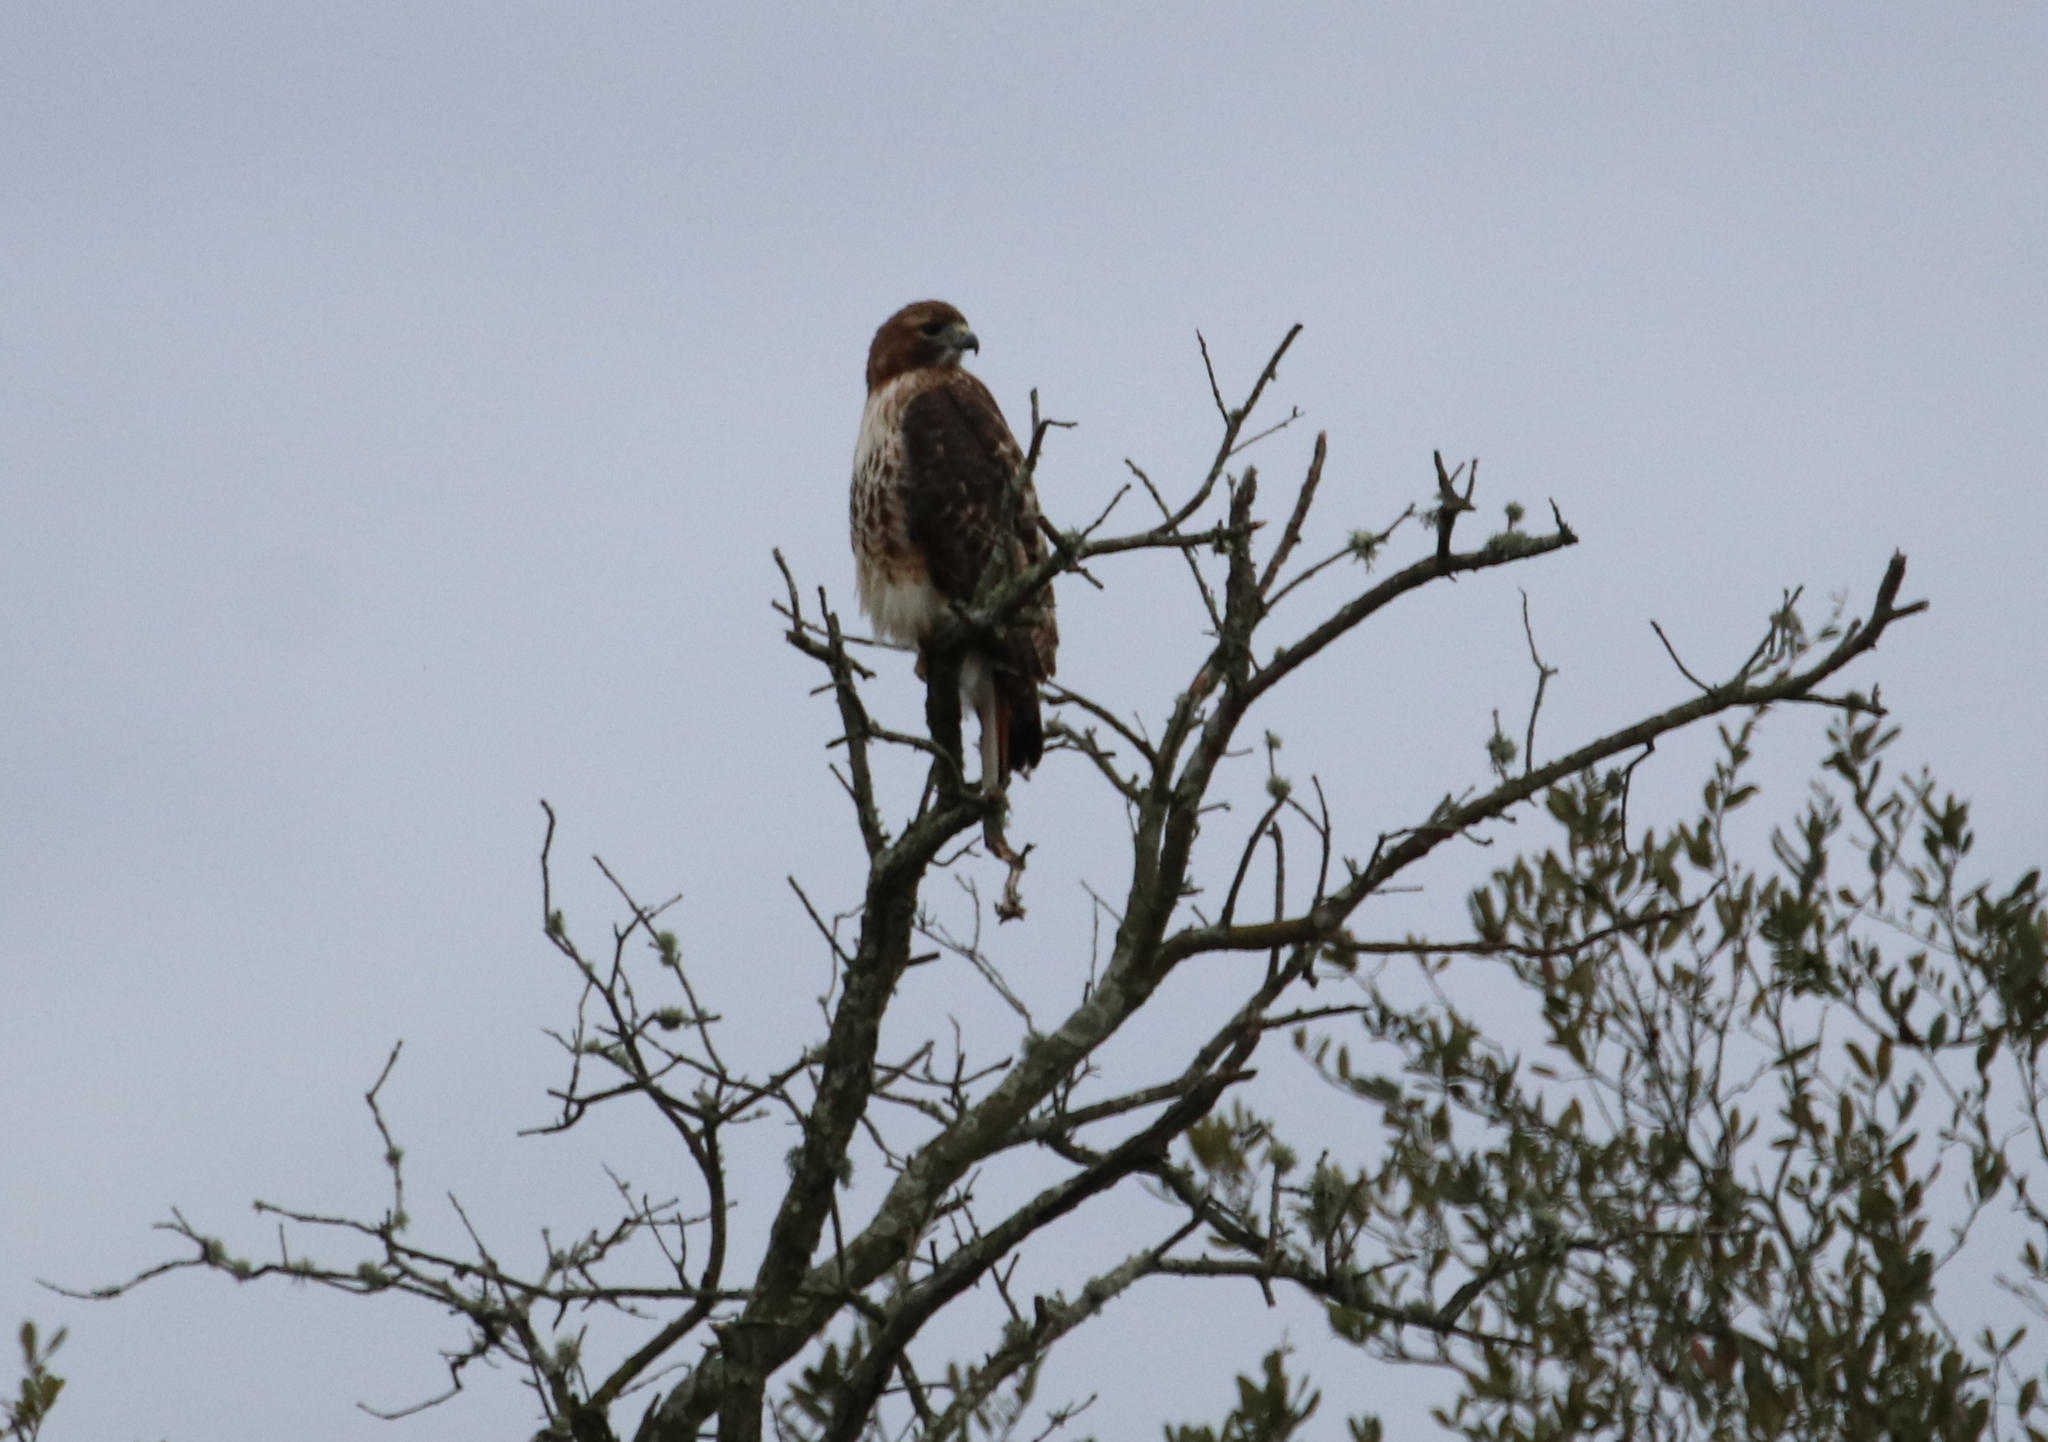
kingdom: Animalia
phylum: Chordata
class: Aves
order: Accipitriformes
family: Accipitridae
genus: Buteo
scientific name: Buteo jamaicensis
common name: Red-tailed hawk
